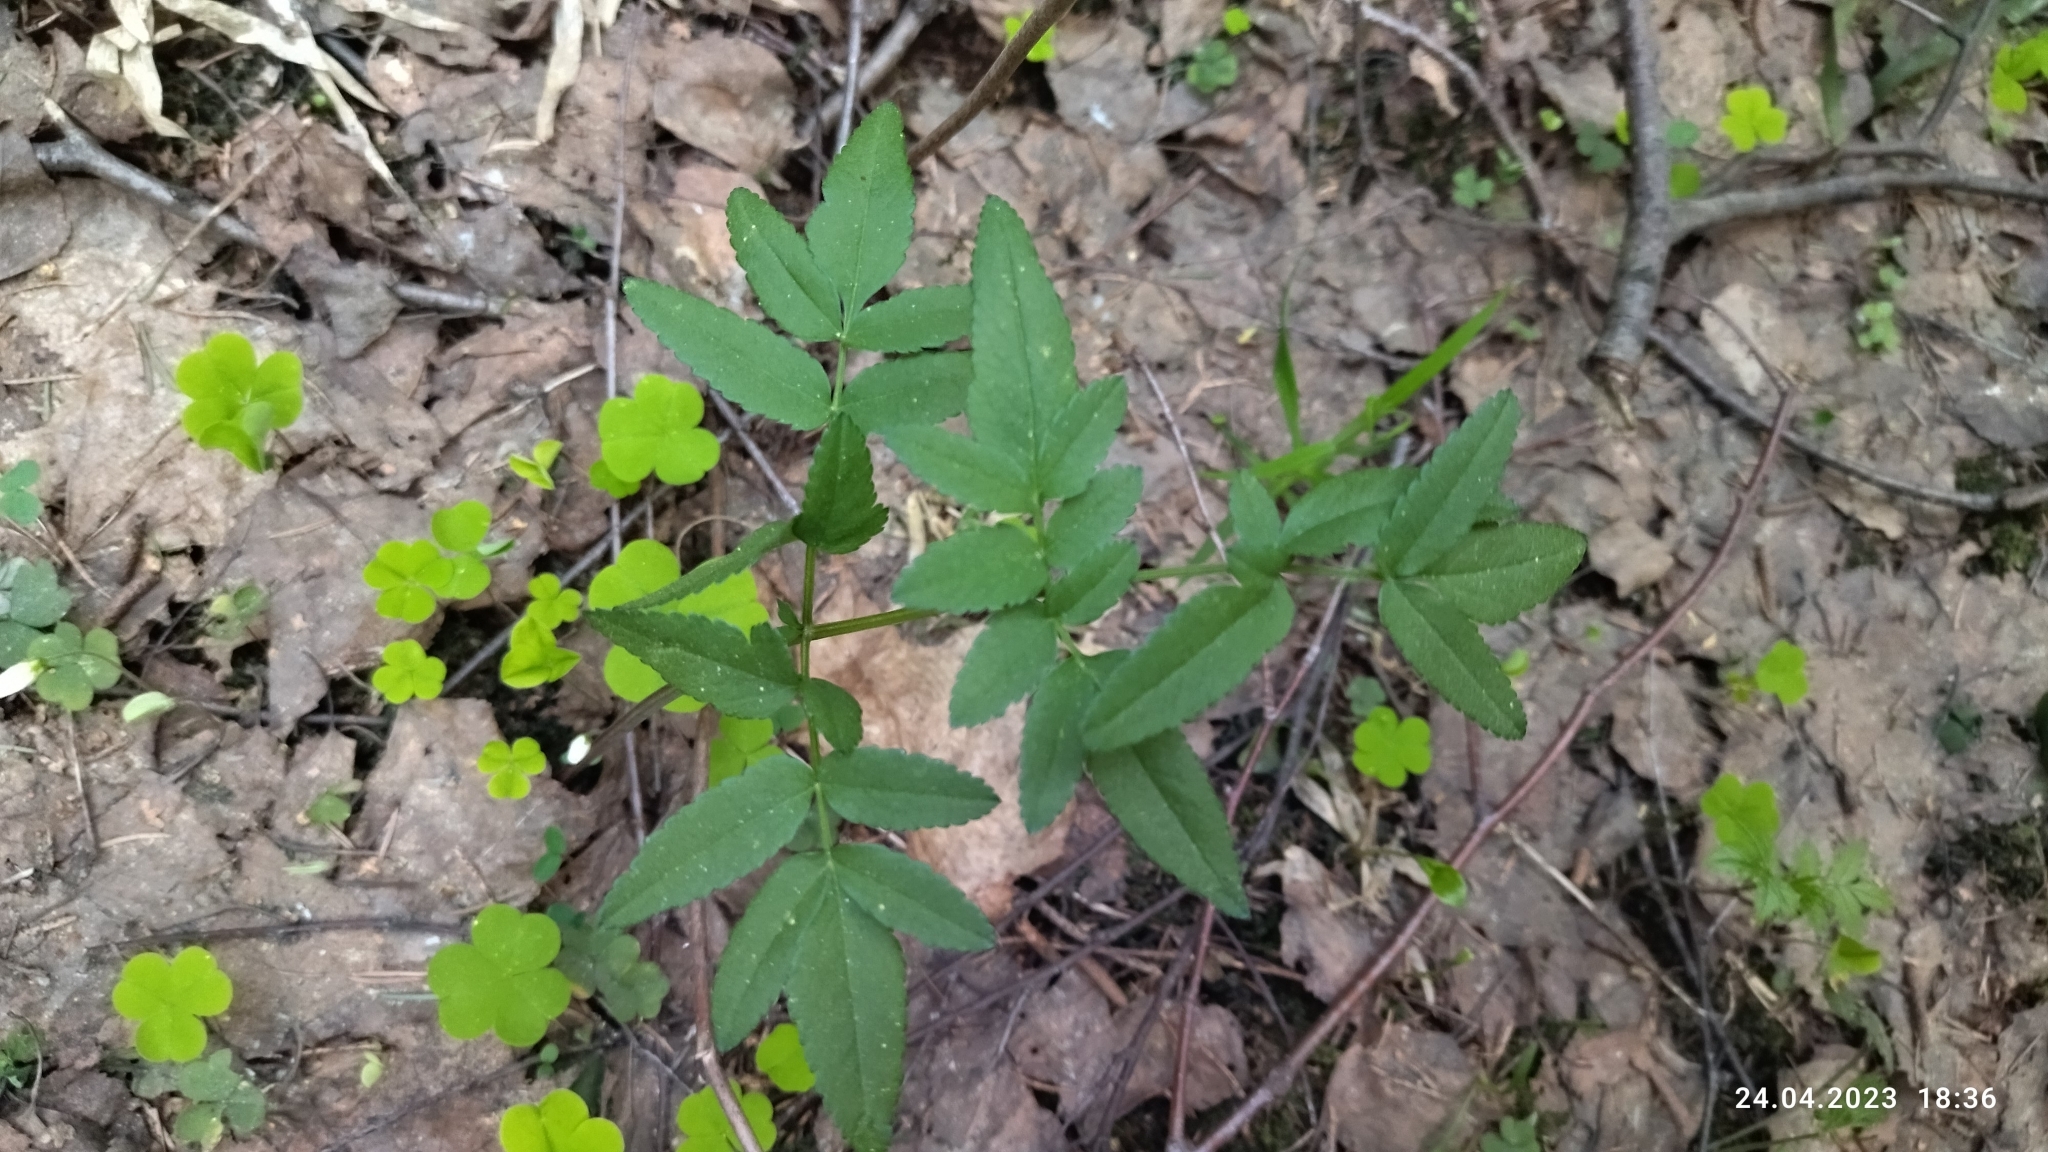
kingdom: Plantae
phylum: Tracheophyta
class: Magnoliopsida
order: Apiales
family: Apiaceae
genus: Angelica
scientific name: Angelica sylvestris
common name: Wild angelica
